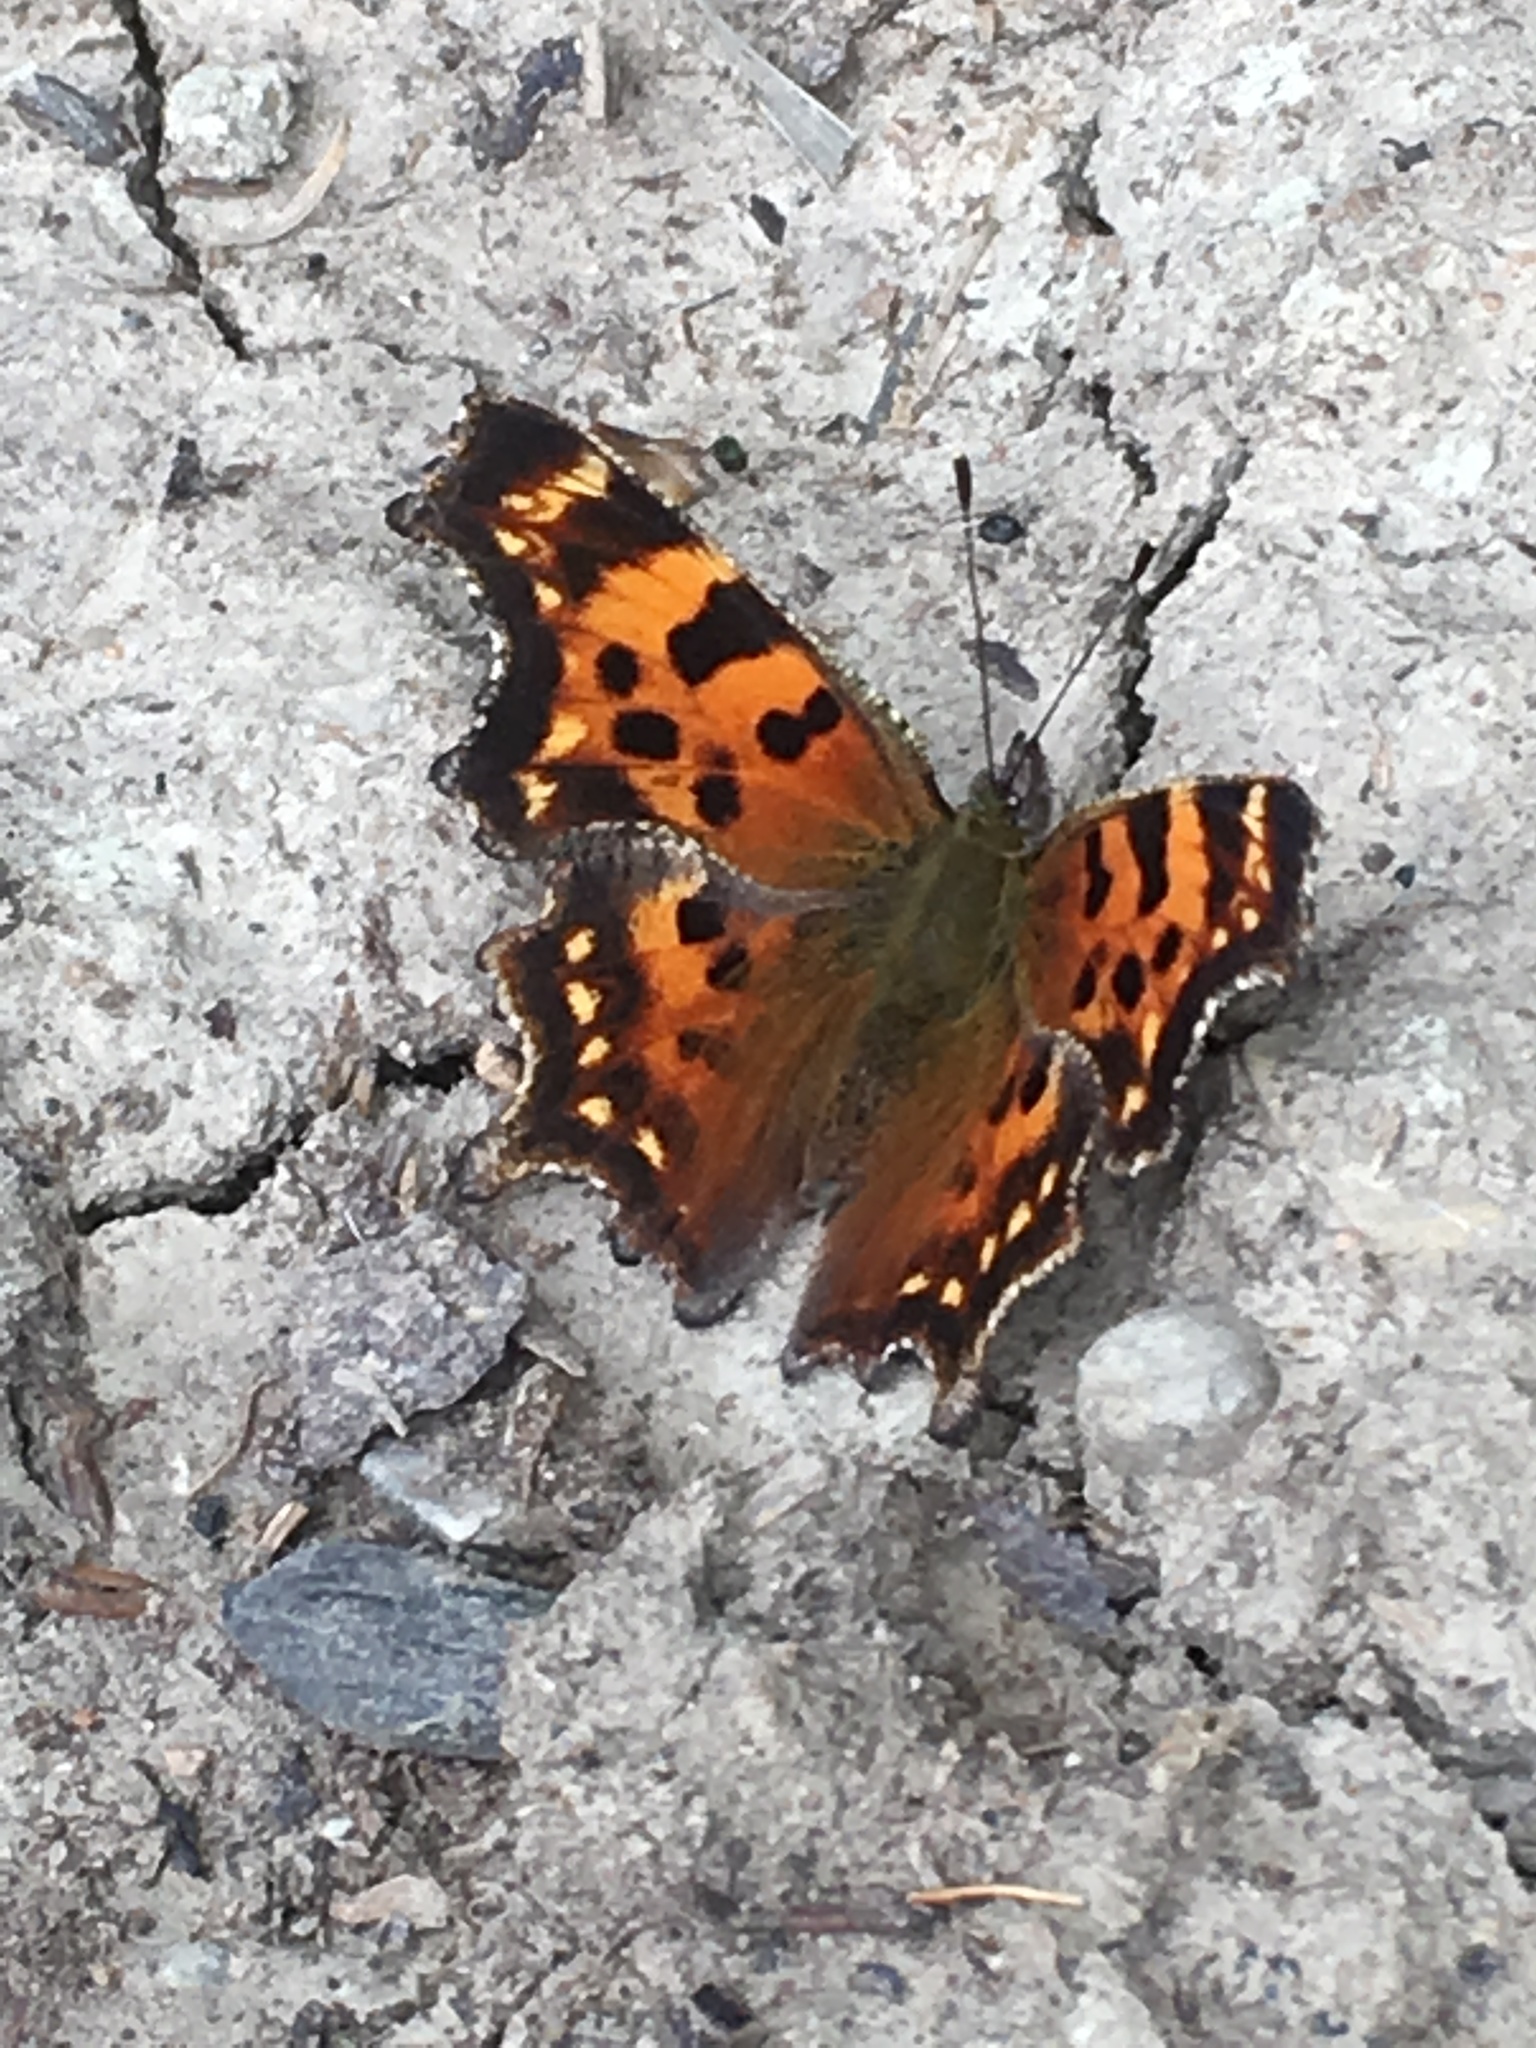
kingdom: Animalia
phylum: Arthropoda
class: Insecta
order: Lepidoptera
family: Nymphalidae
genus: Polygonia
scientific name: Polygonia faunus
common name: Green comma
